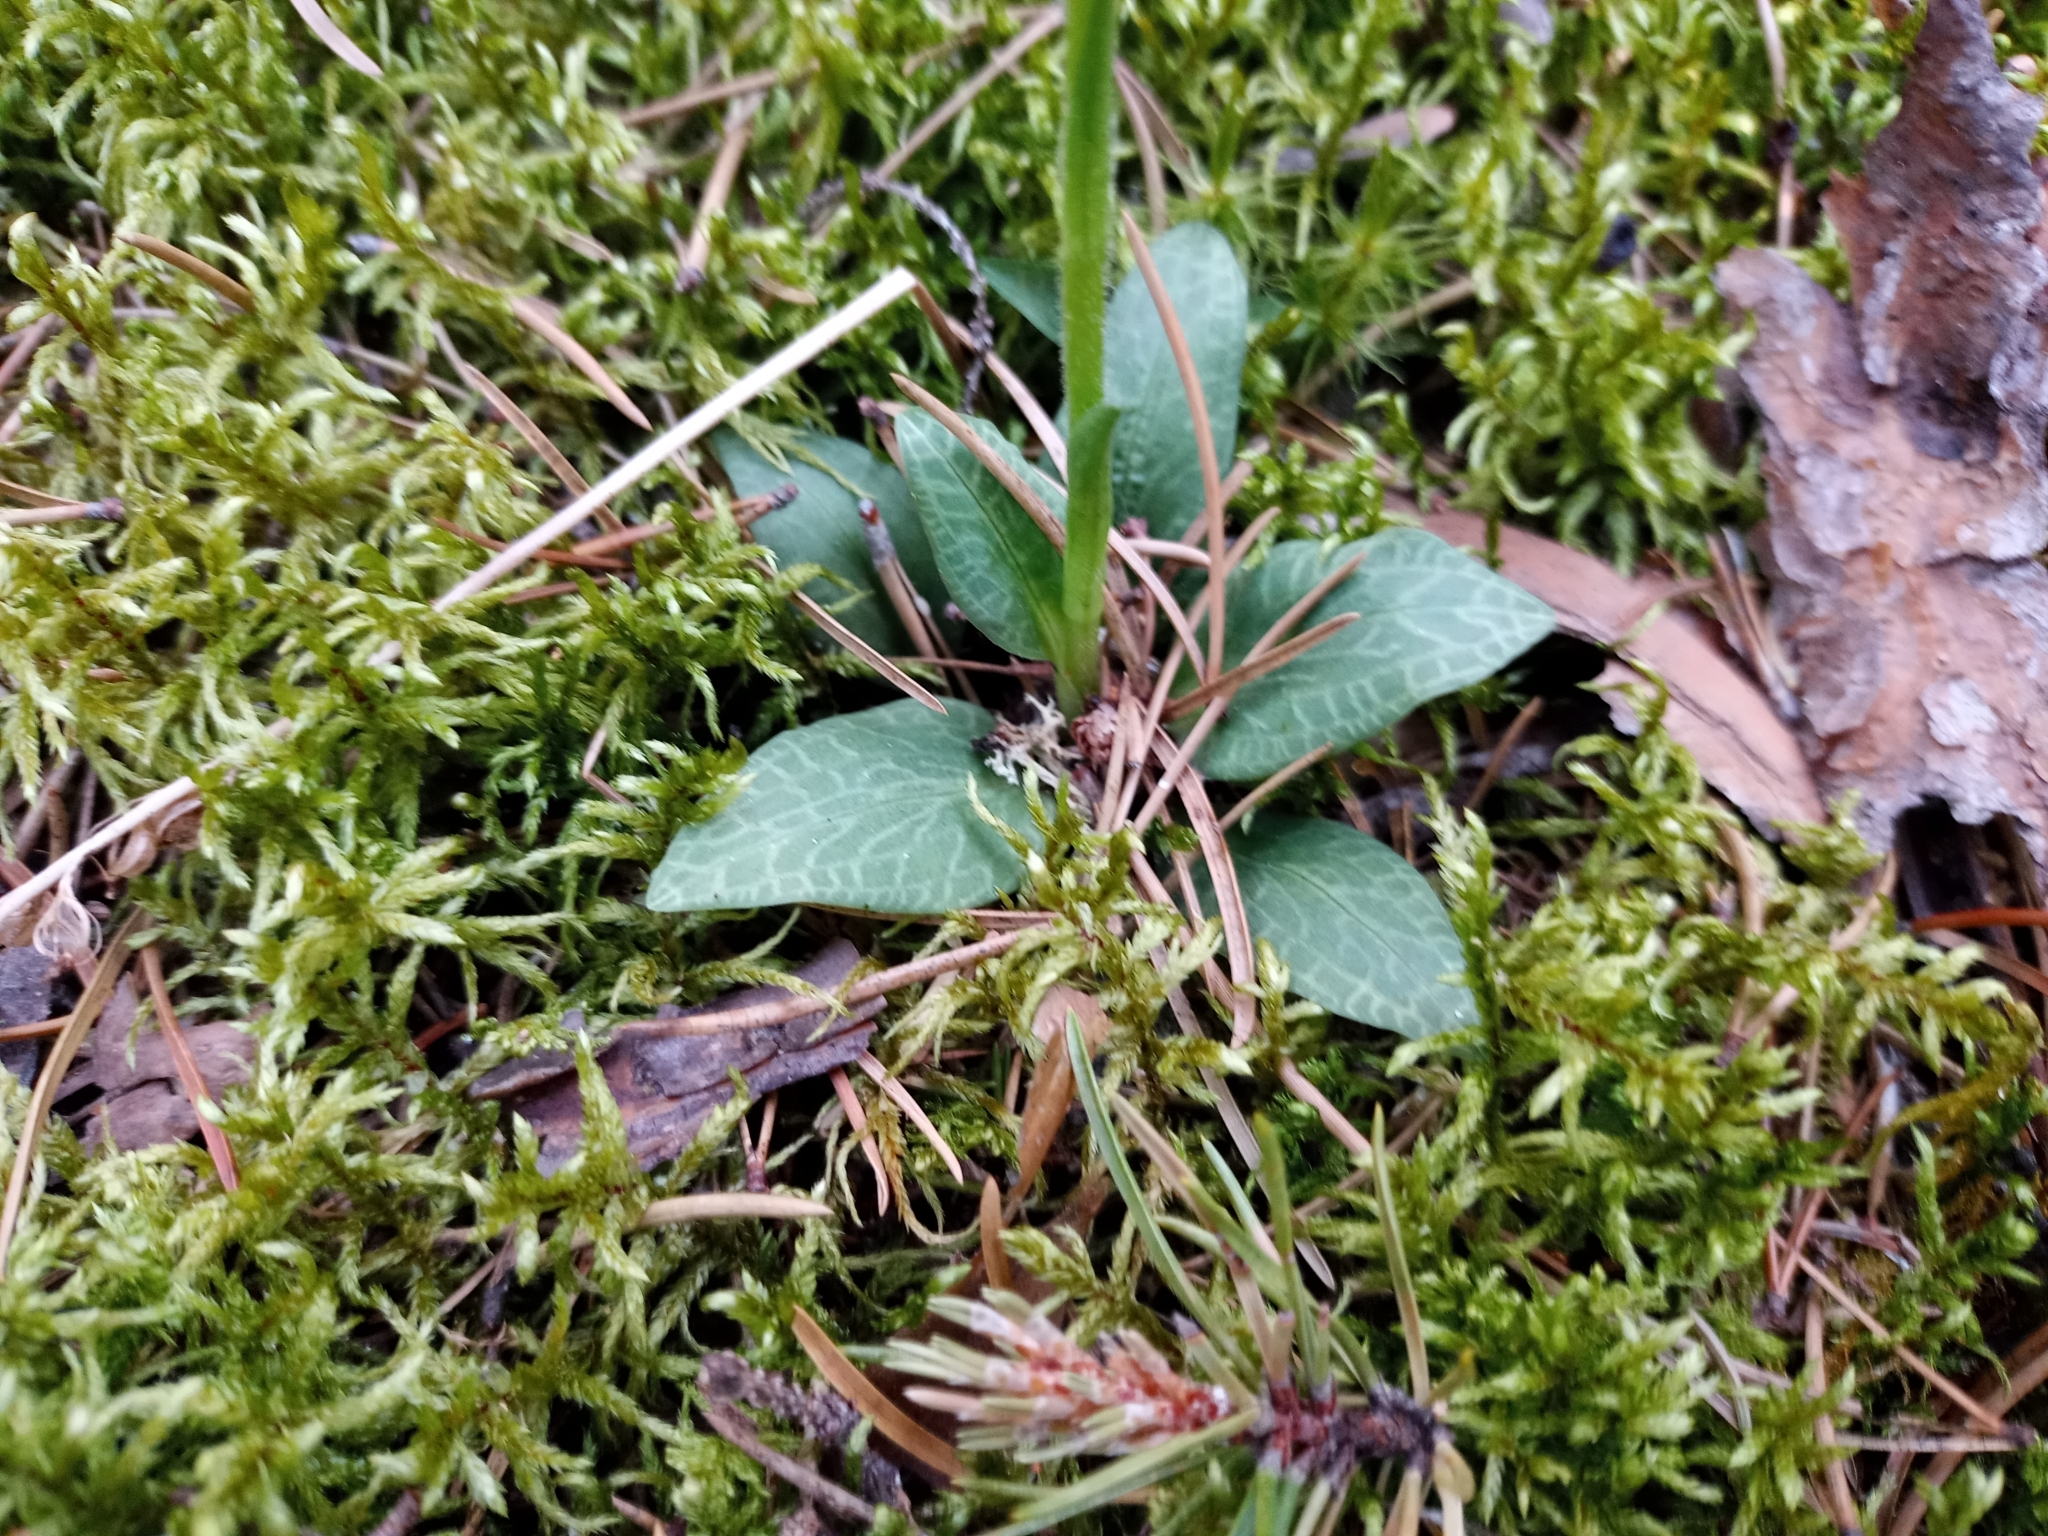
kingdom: Plantae
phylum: Tracheophyta
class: Liliopsida
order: Asparagales
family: Orchidaceae
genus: Goodyera
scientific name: Goodyera tesselata
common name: Checkered rattlesnake-plantain
